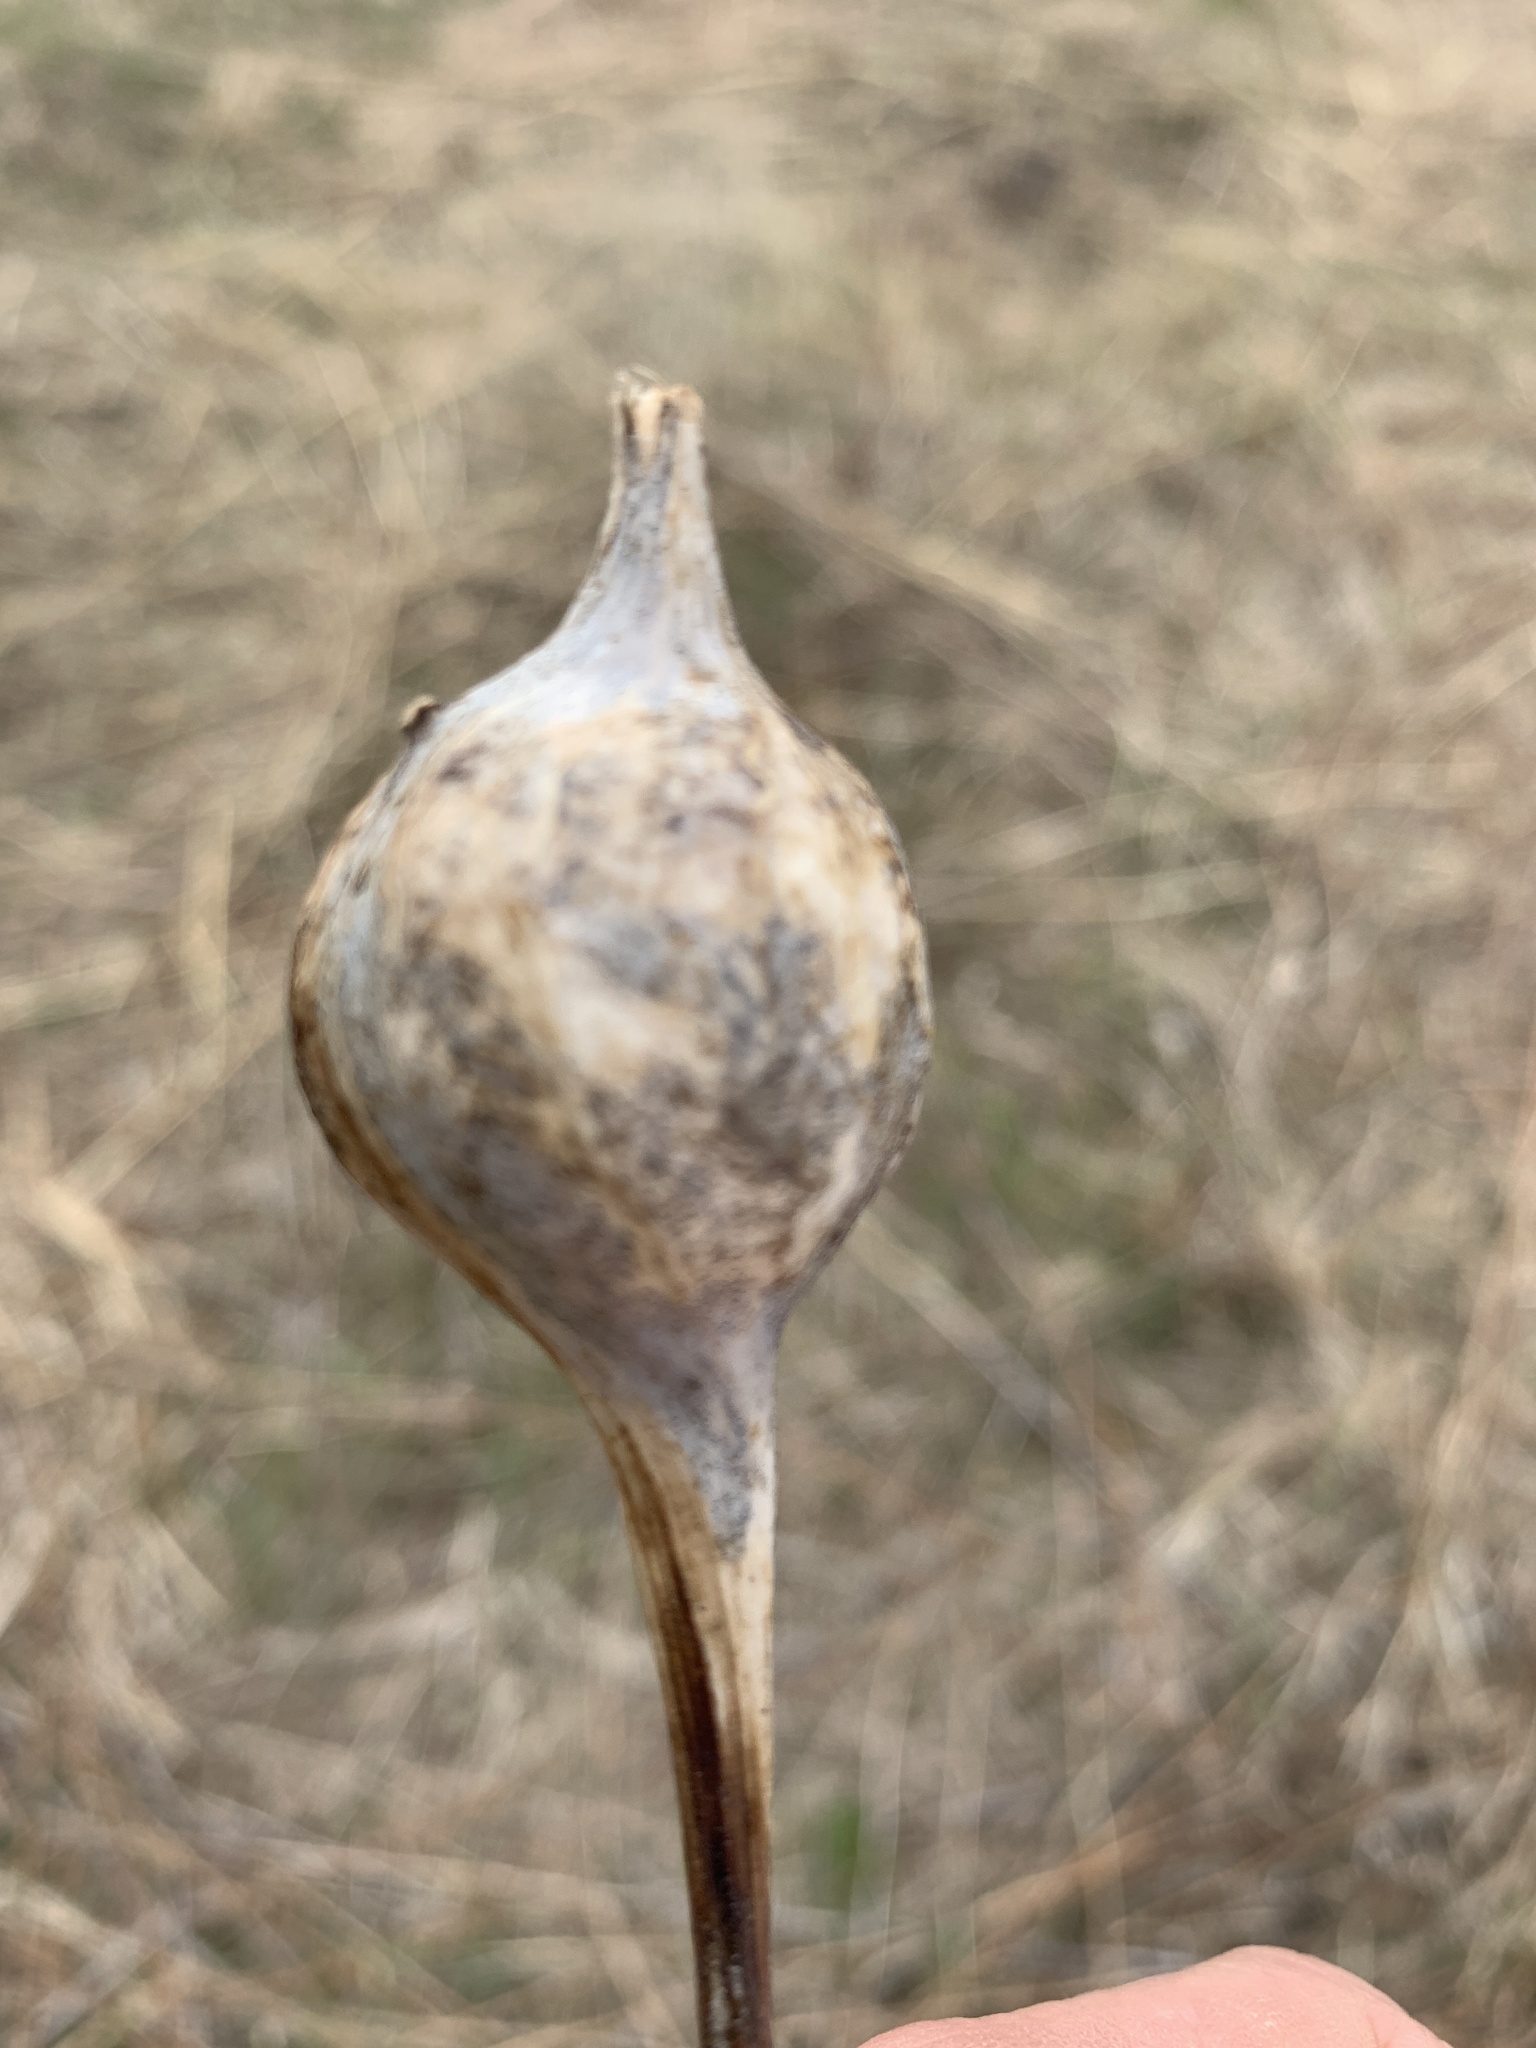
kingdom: Animalia
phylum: Arthropoda
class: Insecta
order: Diptera
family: Tephritidae
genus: Eurosta
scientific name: Eurosta solidaginis
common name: Goldenrod gall fly
